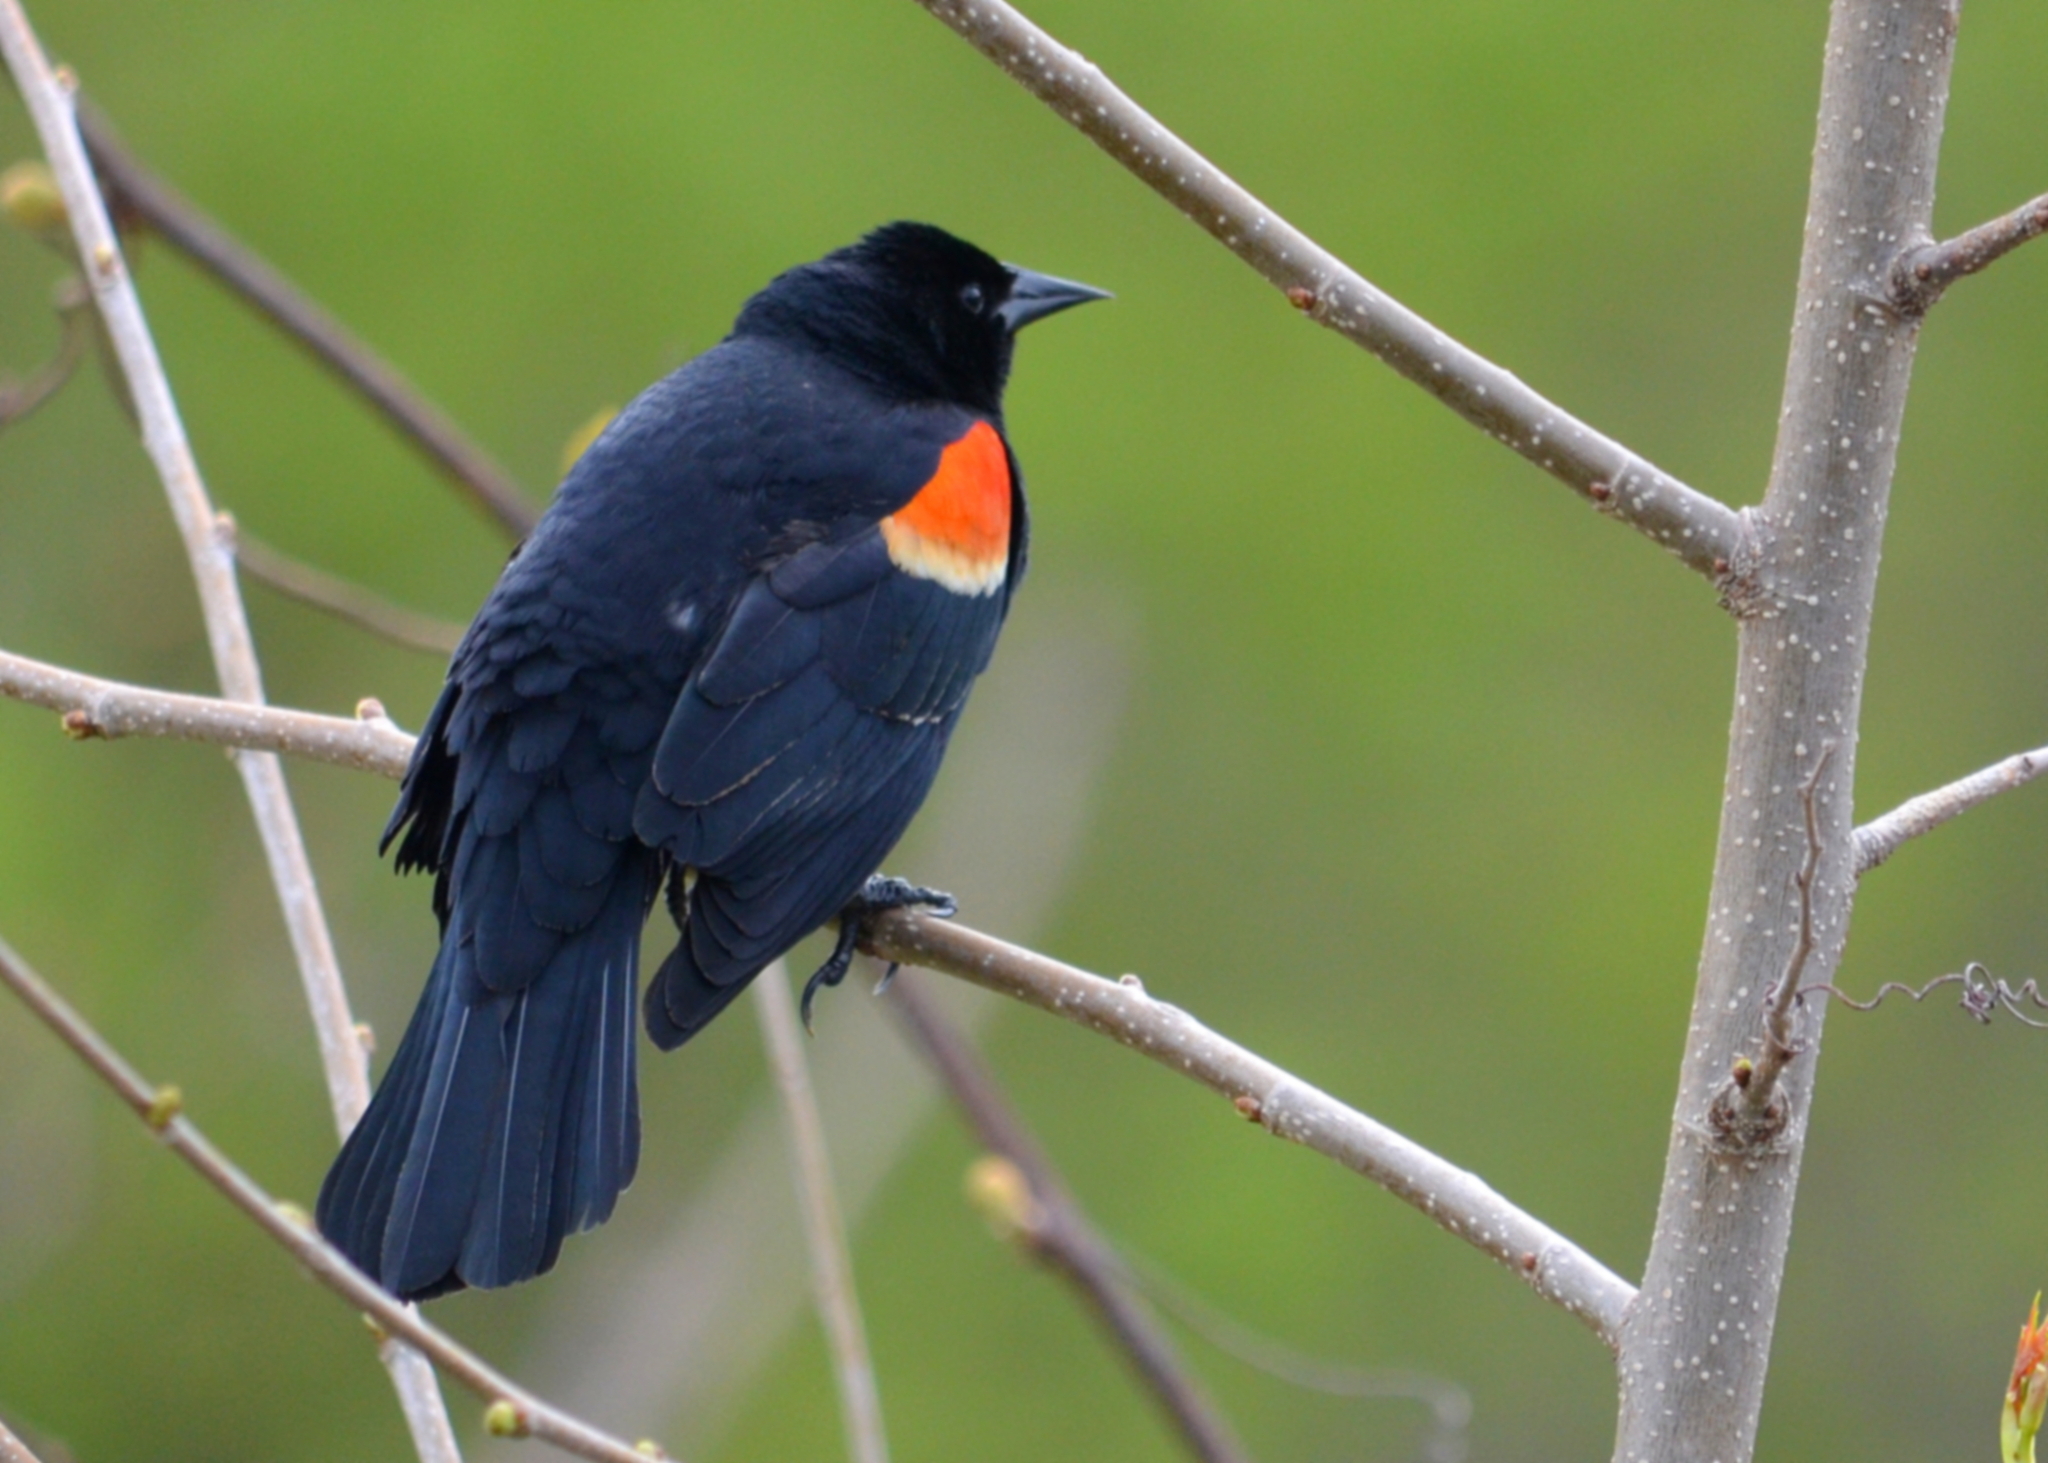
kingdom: Animalia
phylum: Chordata
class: Aves
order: Passeriformes
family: Icteridae
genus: Agelaius
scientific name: Agelaius phoeniceus
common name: Red-winged blackbird
